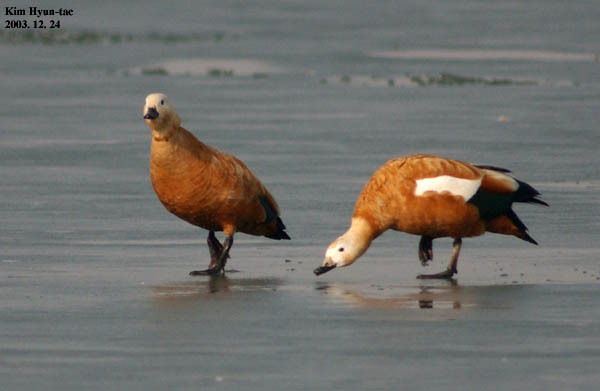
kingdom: Animalia
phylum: Chordata
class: Aves
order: Anseriformes
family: Anatidae
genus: Tadorna
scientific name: Tadorna ferruginea
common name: Ruddy shelduck
